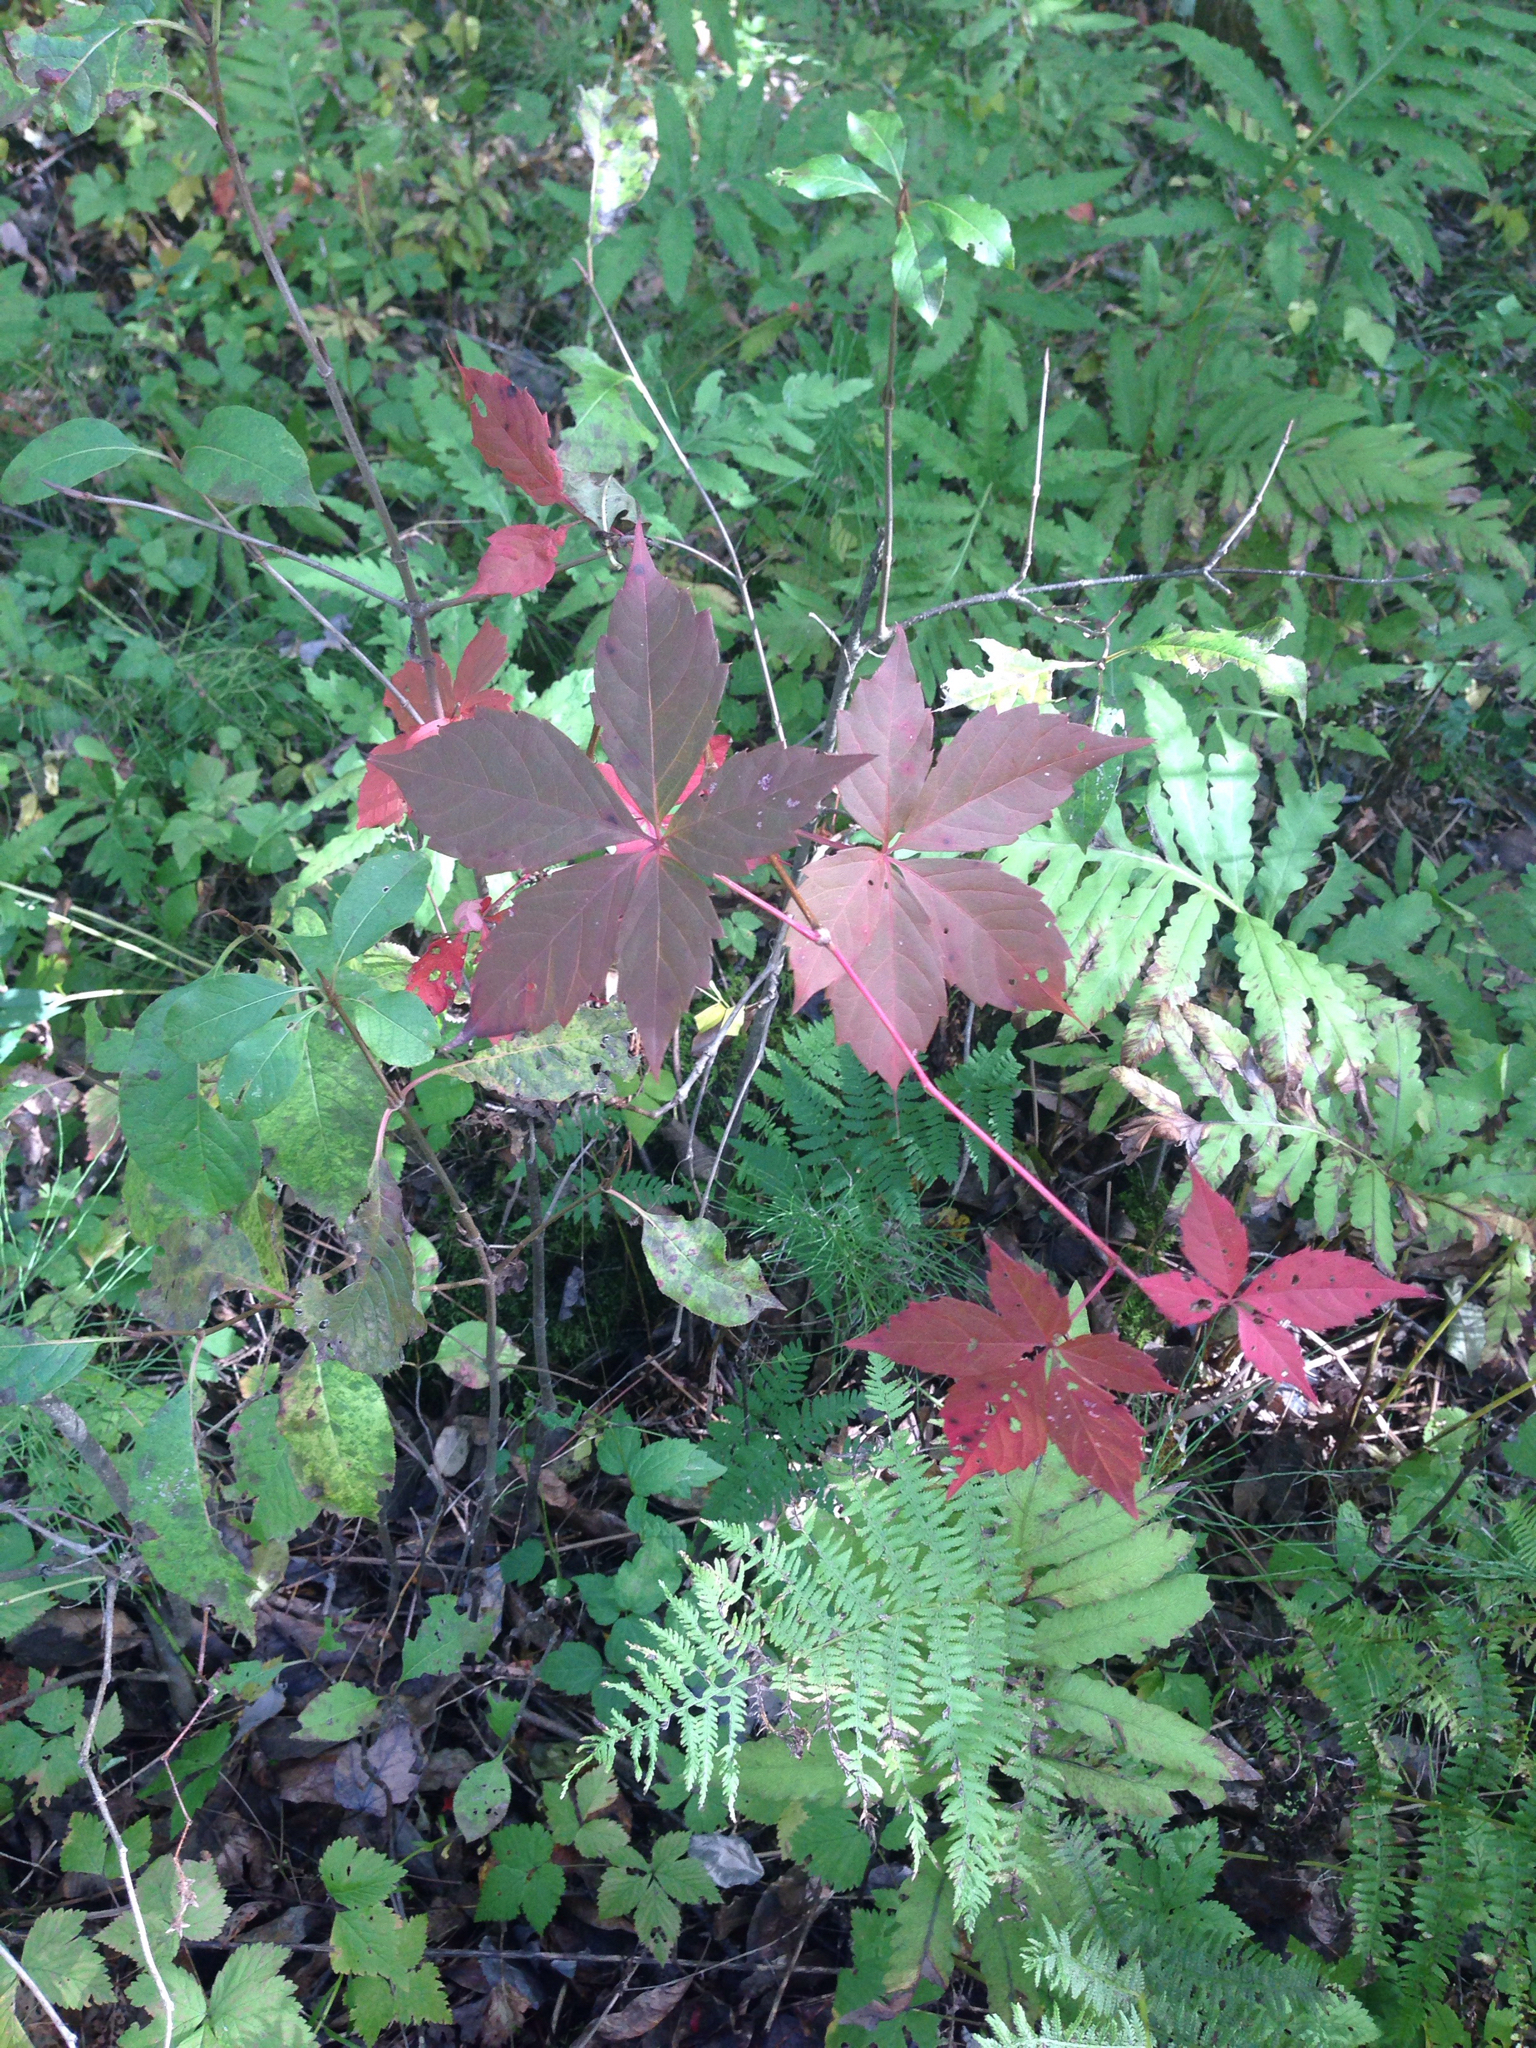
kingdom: Plantae
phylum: Tracheophyta
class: Magnoliopsida
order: Vitales
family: Vitaceae
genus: Parthenocissus
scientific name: Parthenocissus quinquefolia
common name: Virginia-creeper
